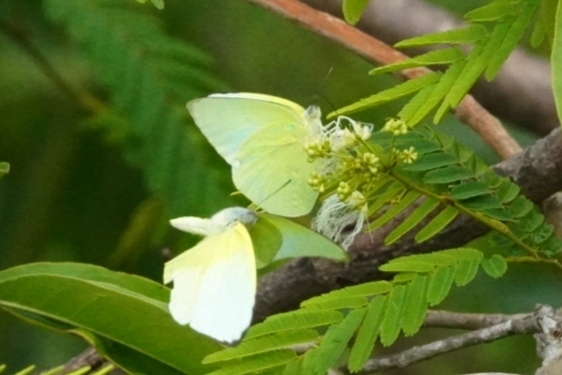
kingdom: Animalia
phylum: Arthropoda
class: Insecta
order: Lepidoptera
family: Pieridae
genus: Catopsilia
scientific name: Catopsilia pomona
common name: Common emigrant
